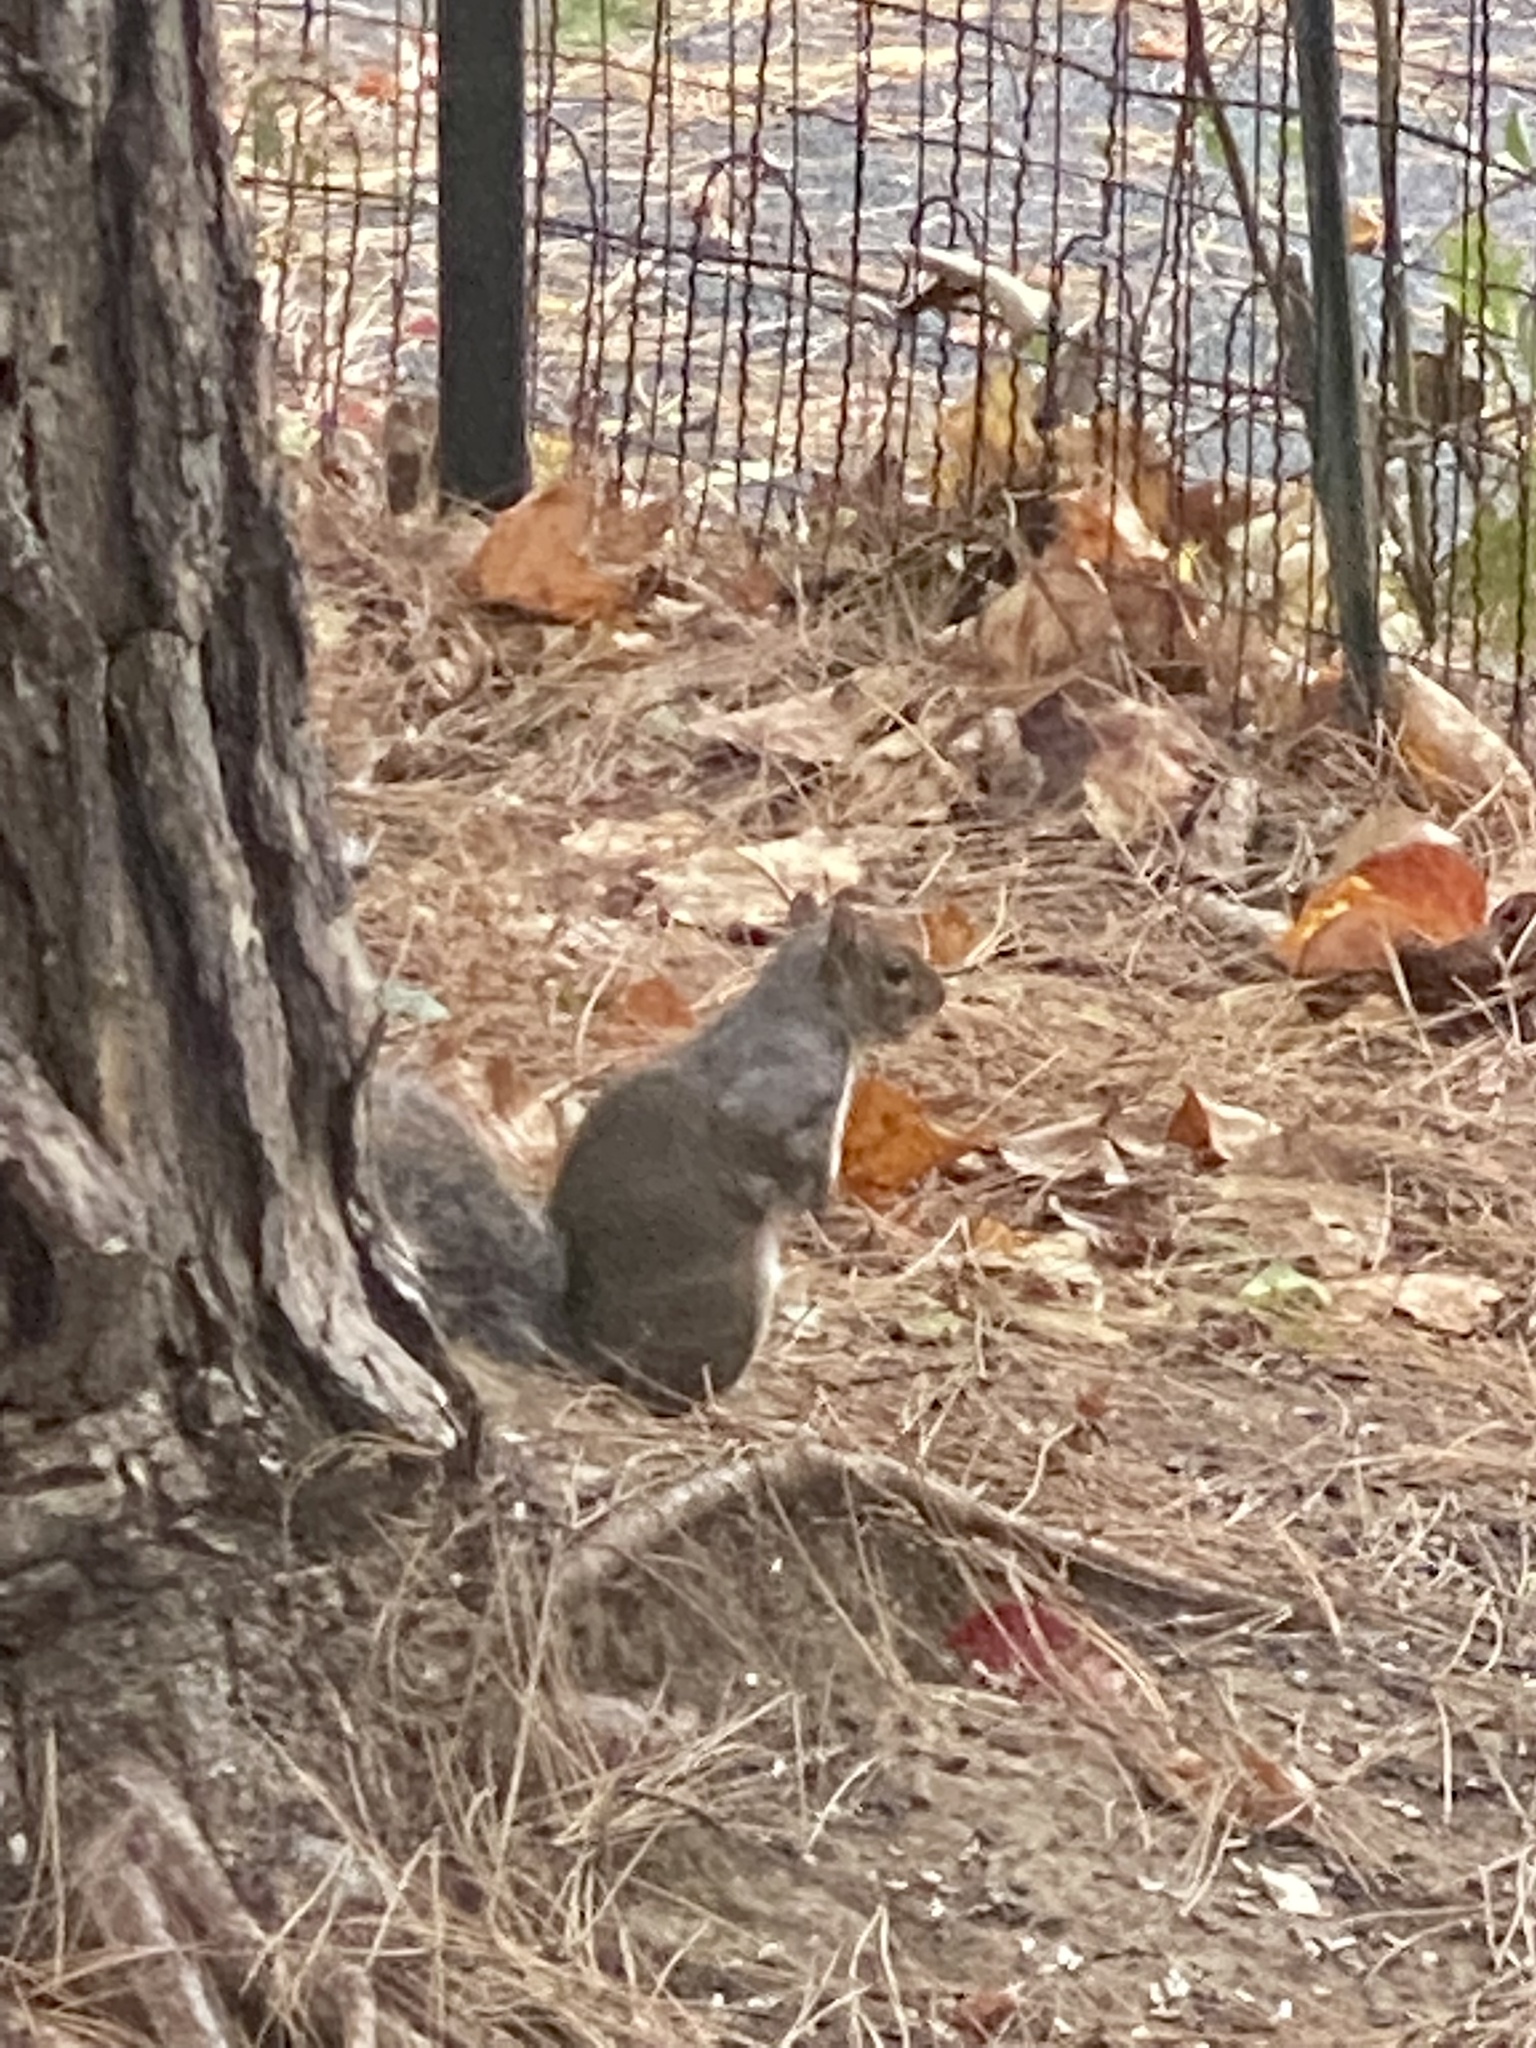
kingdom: Animalia
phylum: Chordata
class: Mammalia
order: Rodentia
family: Sciuridae
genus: Sciurus
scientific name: Sciurus carolinensis
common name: Eastern gray squirrel
